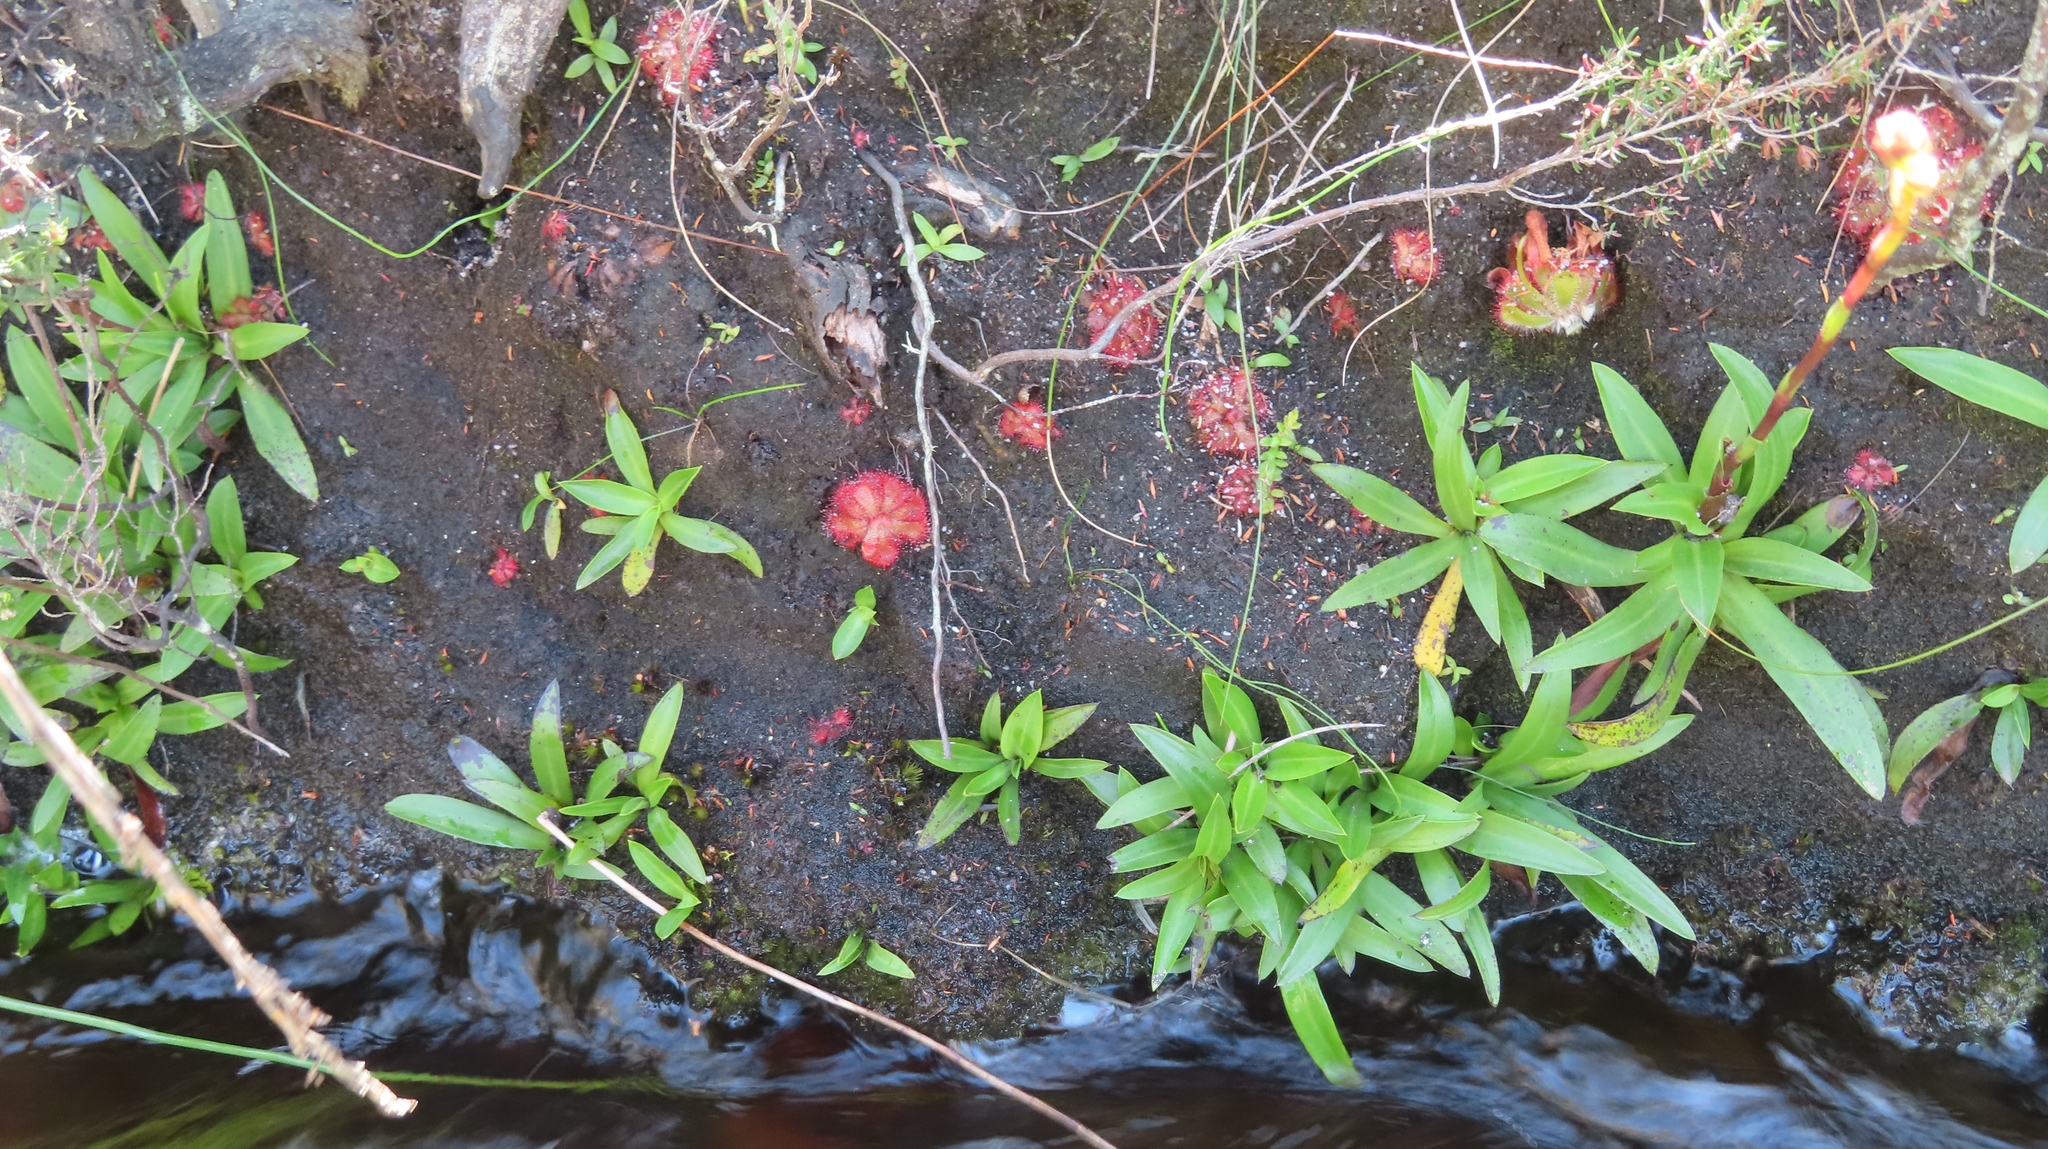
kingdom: Plantae
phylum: Tracheophyta
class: Magnoliopsida
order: Caryophyllales
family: Droseraceae
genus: Drosera
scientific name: Drosera aliciae
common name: Alice sundew
